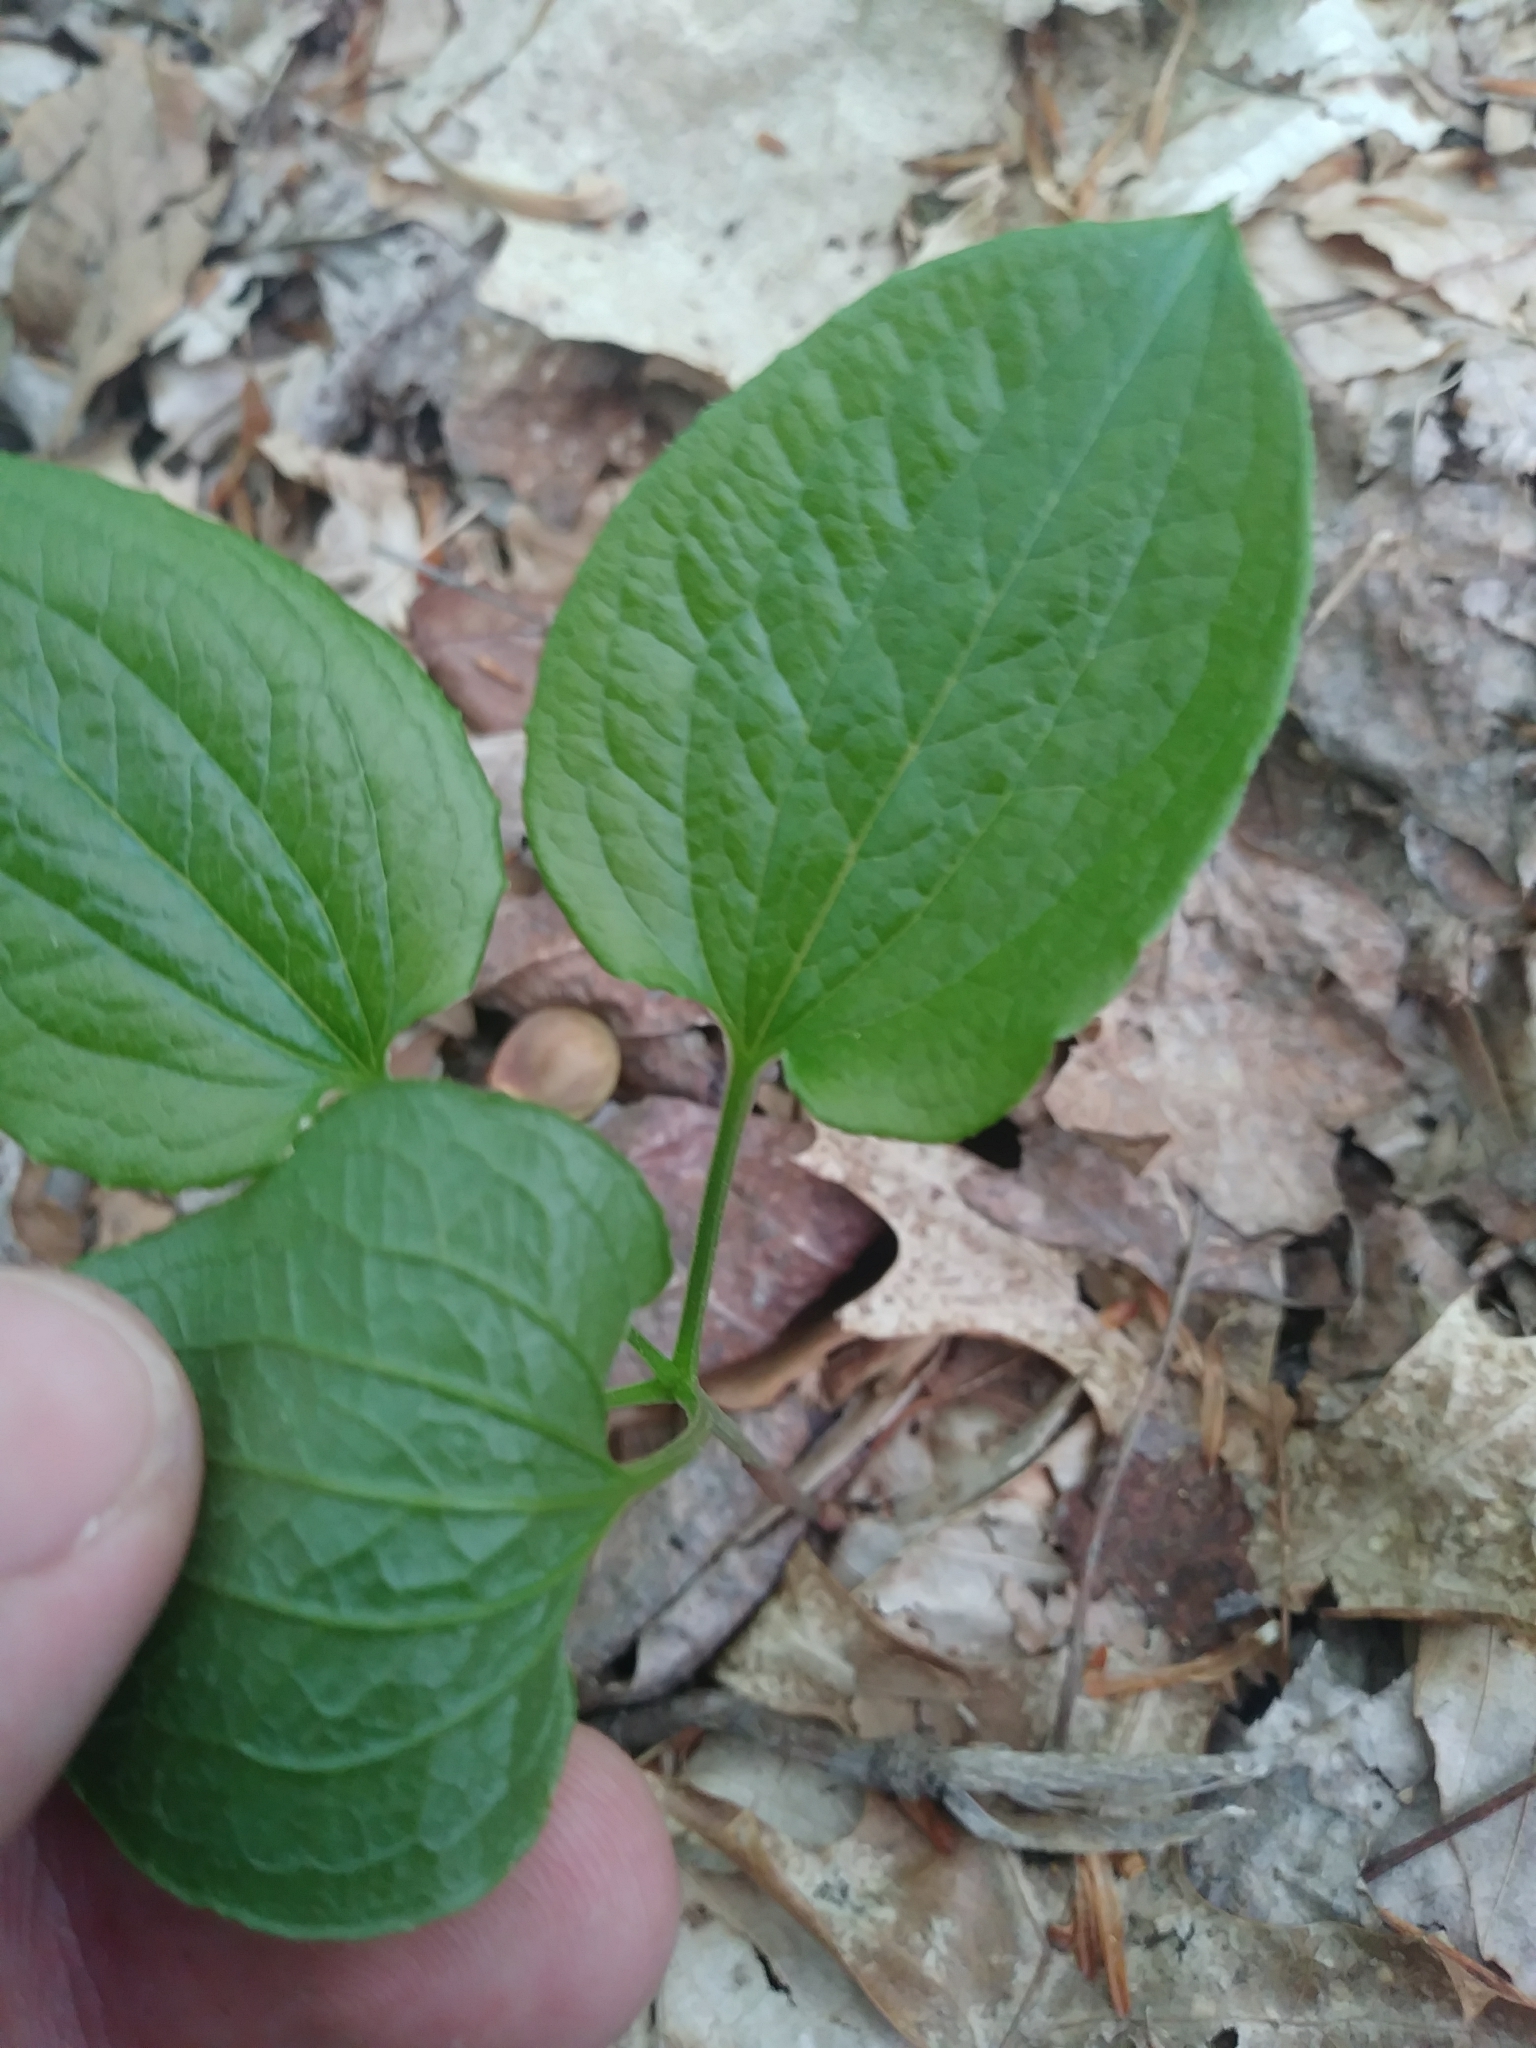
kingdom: Plantae
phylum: Tracheophyta
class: Liliopsida
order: Liliales
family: Smilacaceae
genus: Smilax
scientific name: Smilax pulverulenta
